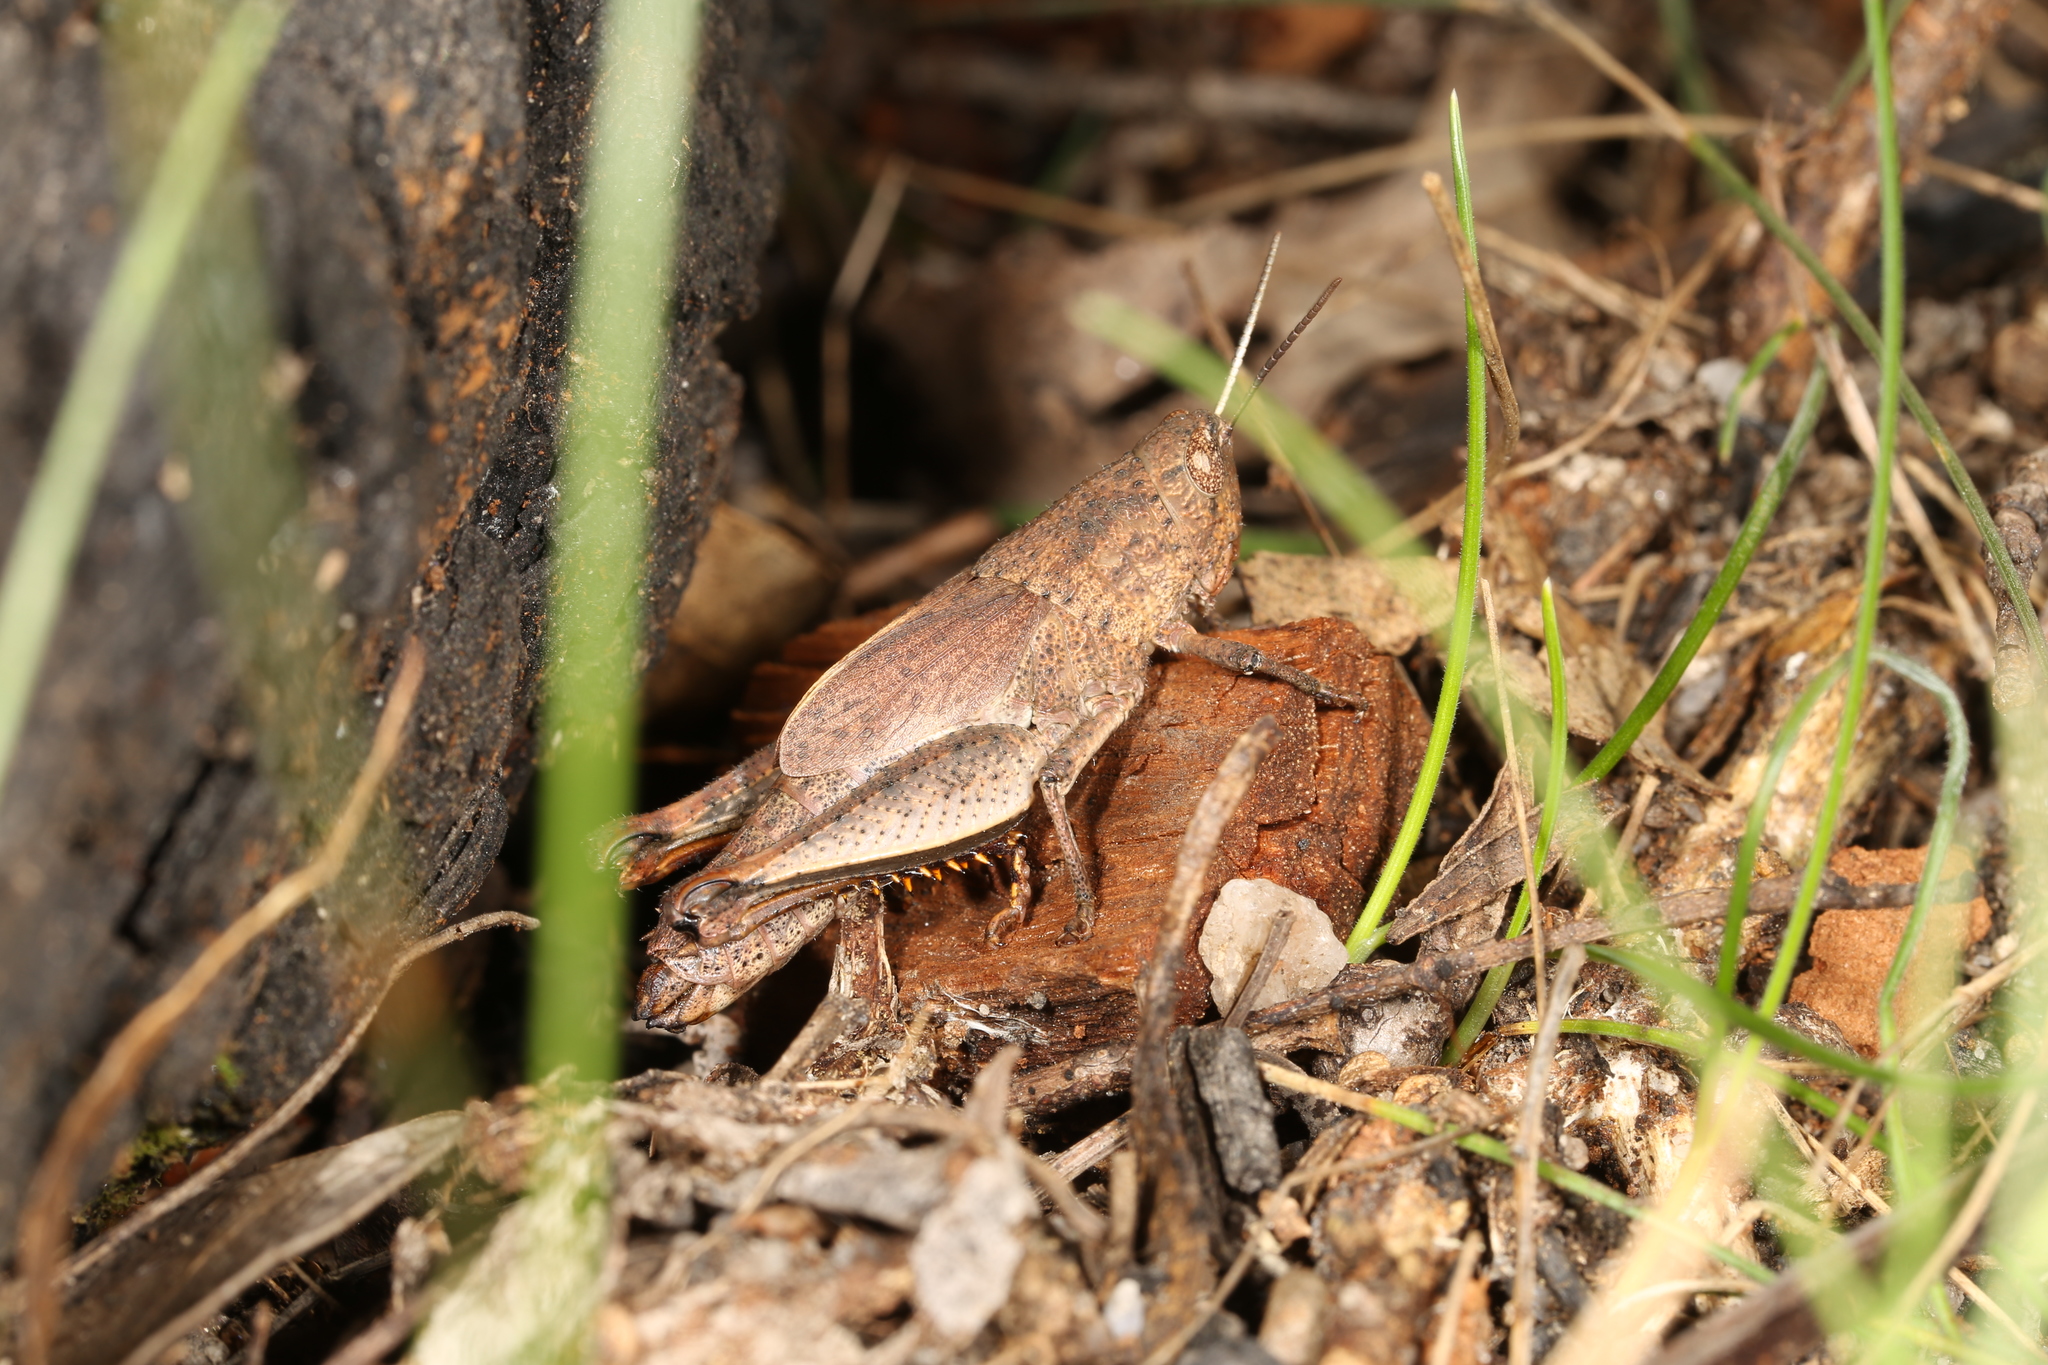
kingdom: Animalia
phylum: Arthropoda
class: Insecta
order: Orthoptera
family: Acrididae
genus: Rhitzala
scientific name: Rhitzala modesta
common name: Short-winged heath grasshopper
